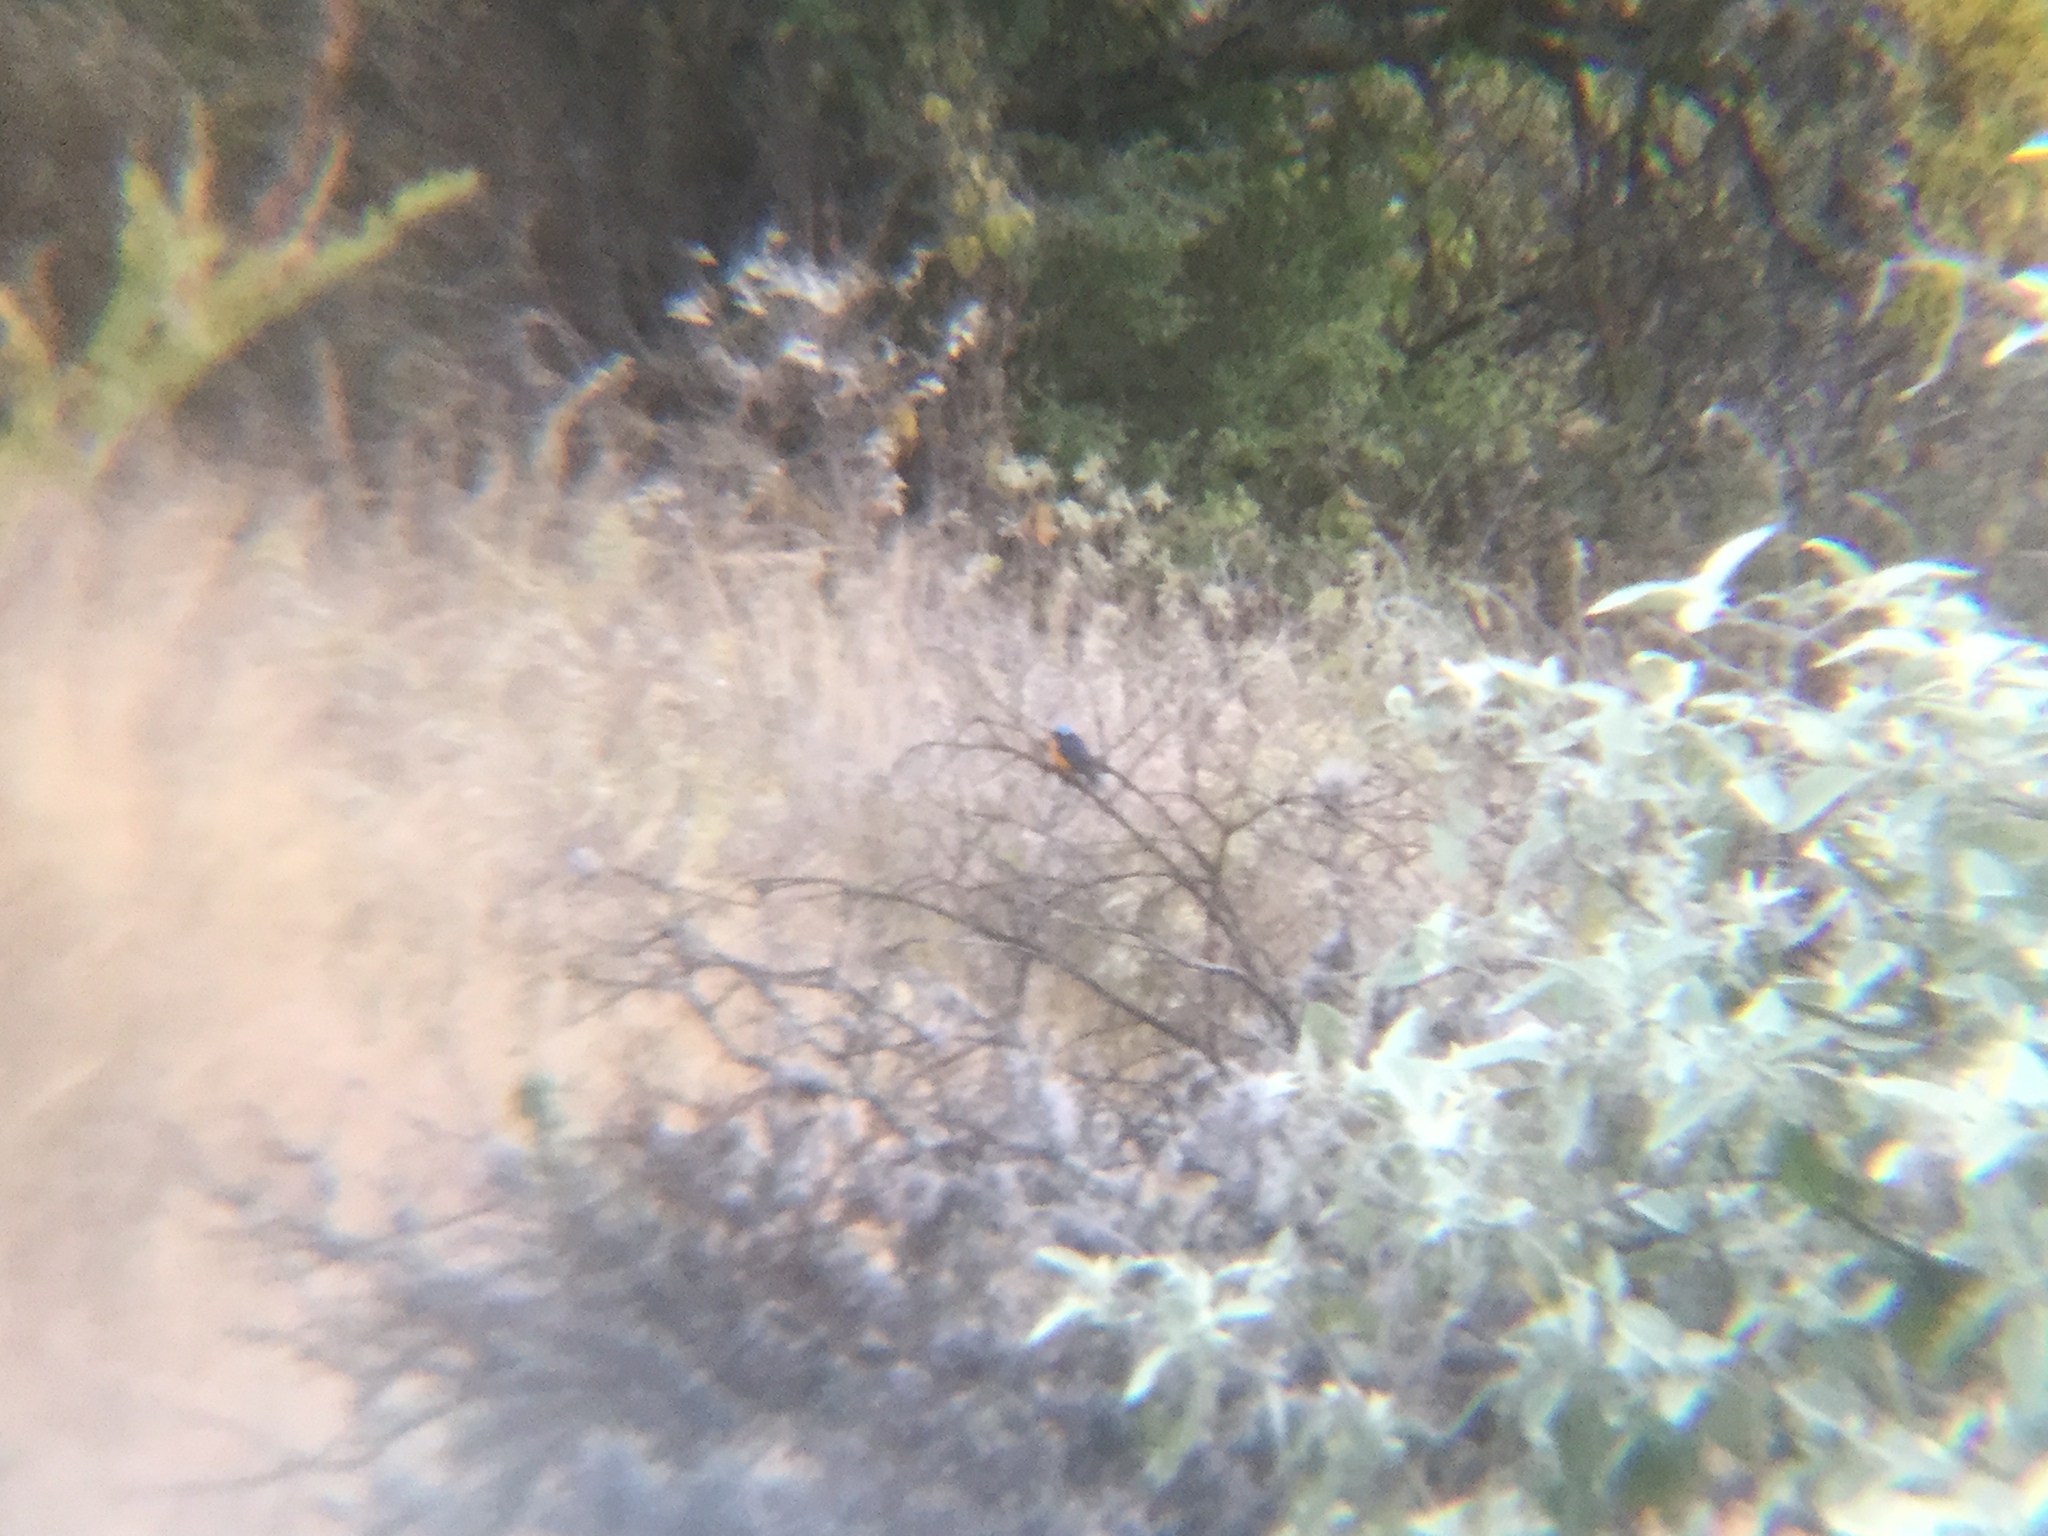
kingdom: Animalia
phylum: Chordata
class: Aves
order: Passeriformes
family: Fringillidae
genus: Euphonia
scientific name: Euphonia elegantissima
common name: Elegant euphonia
